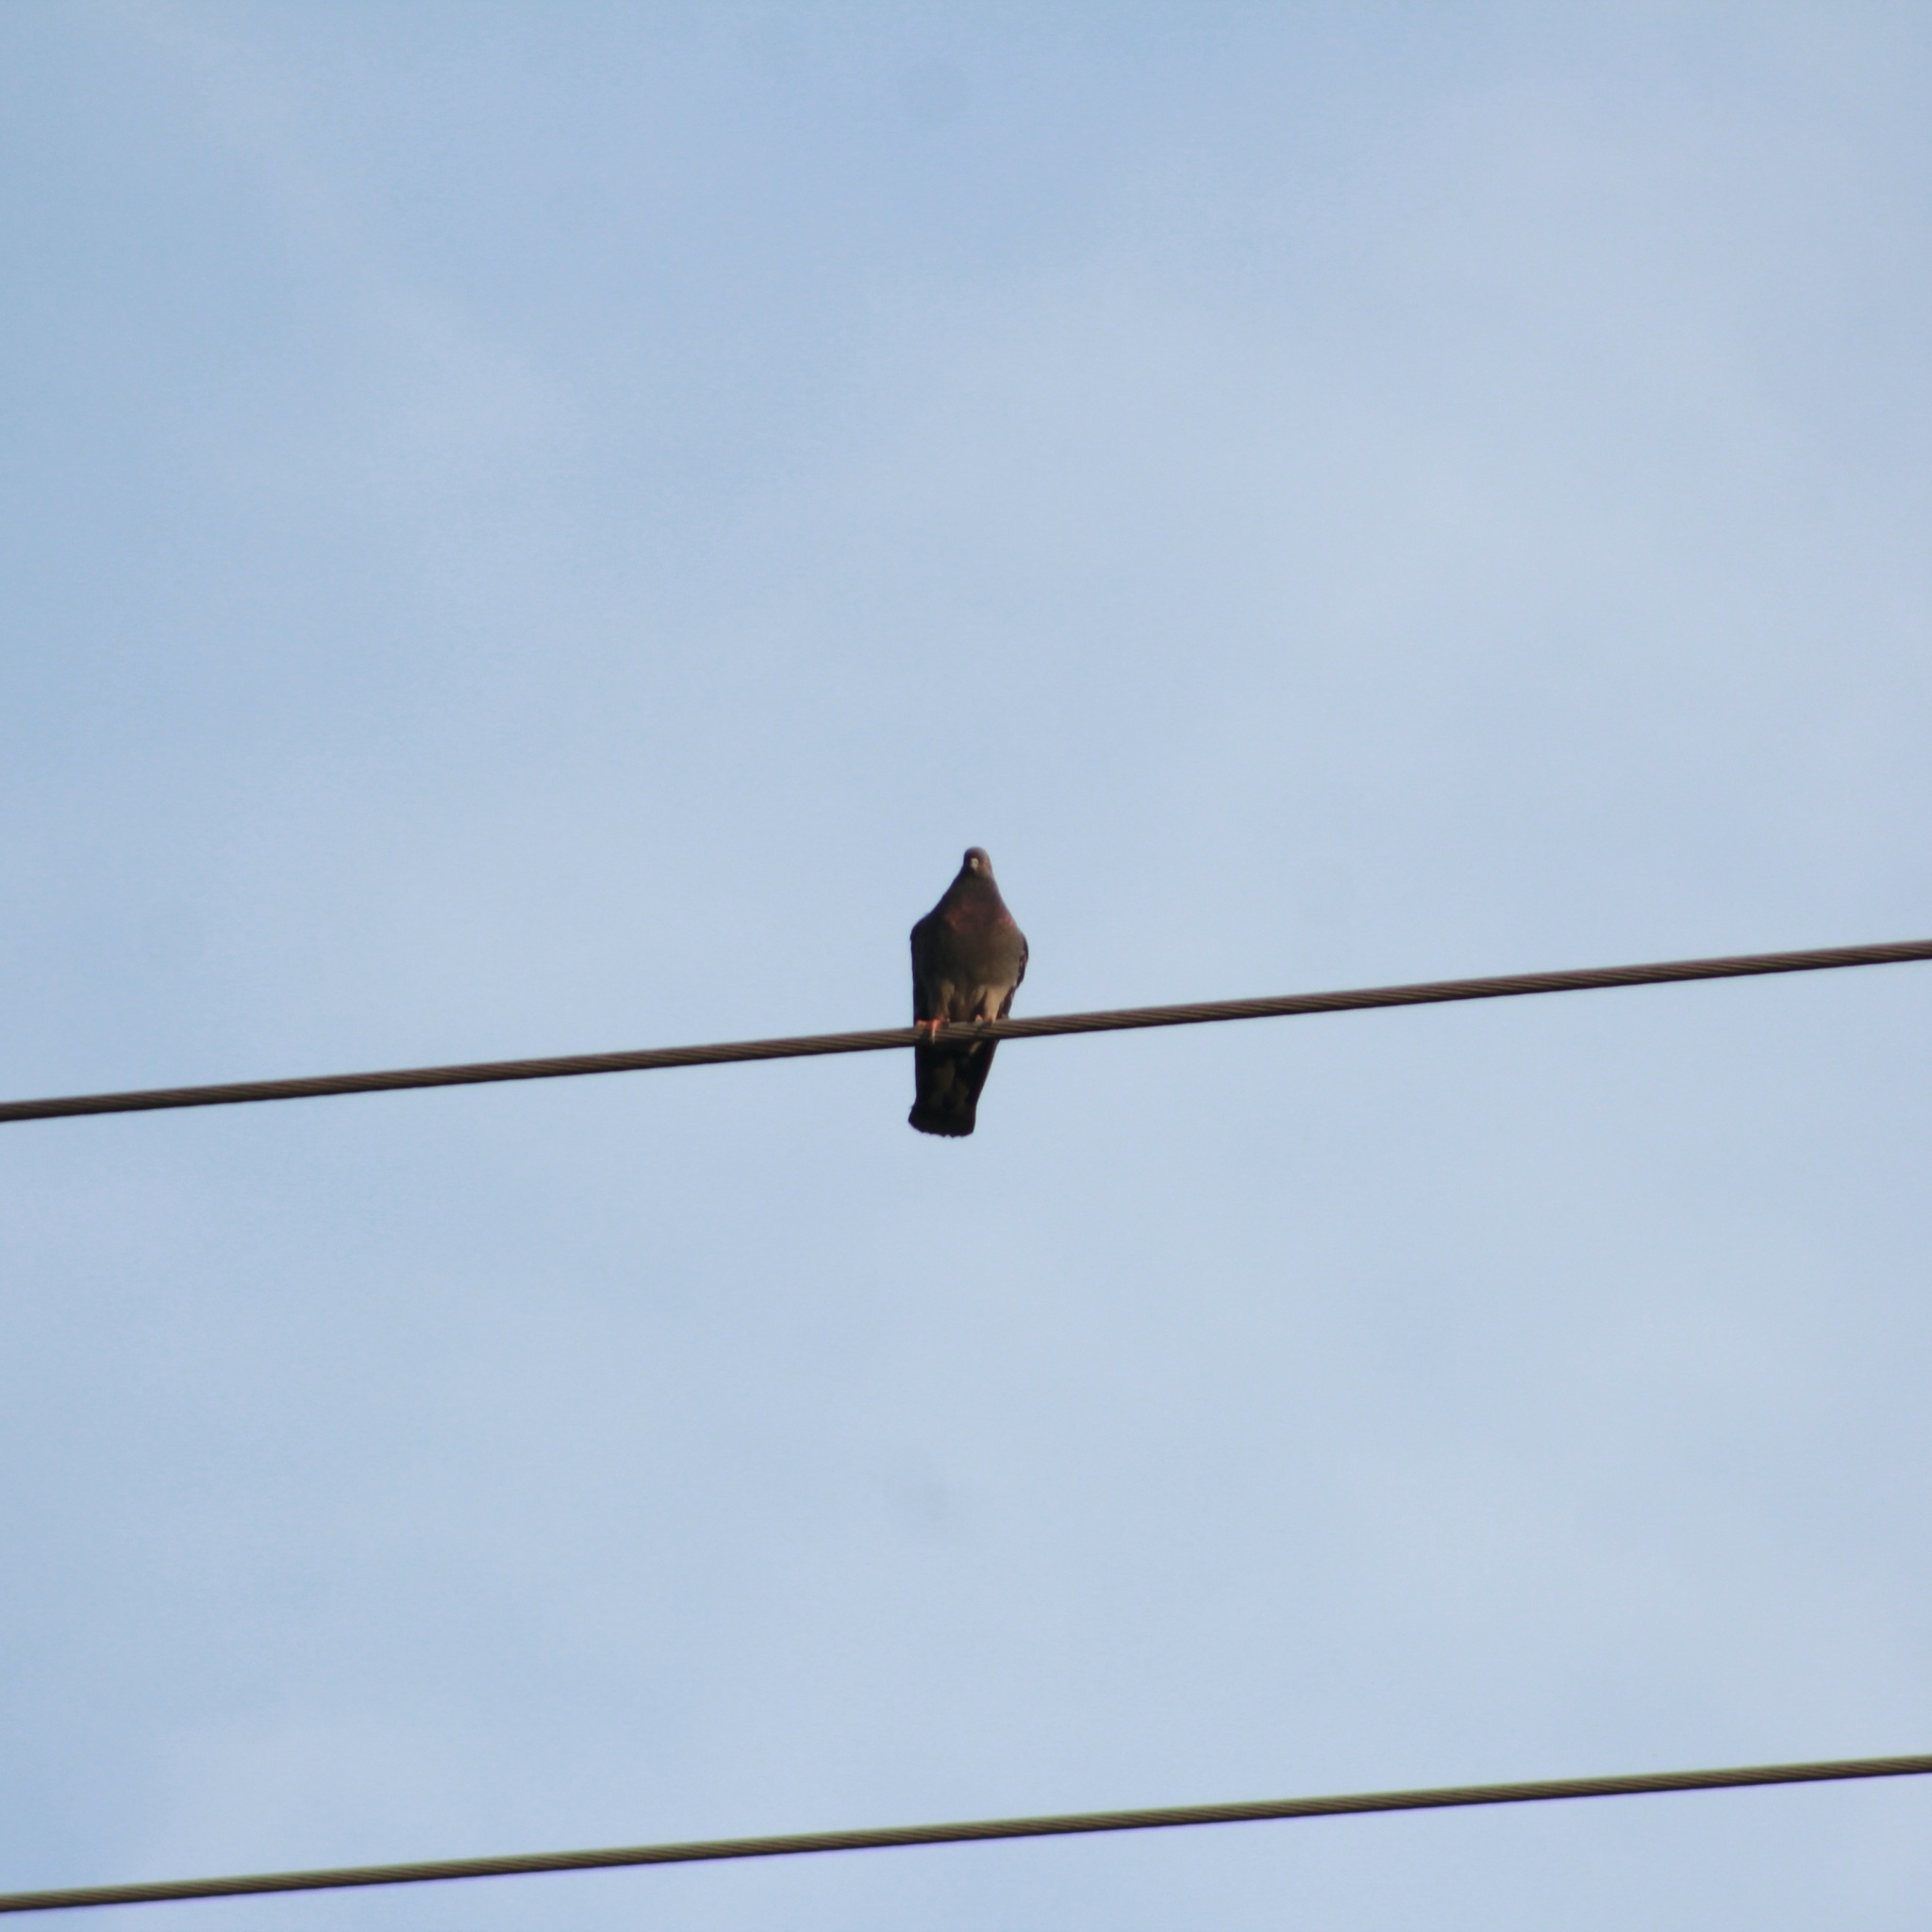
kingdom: Animalia
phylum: Chordata
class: Aves
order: Columbiformes
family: Columbidae
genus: Columba
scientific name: Columba livia
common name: Rock pigeon
